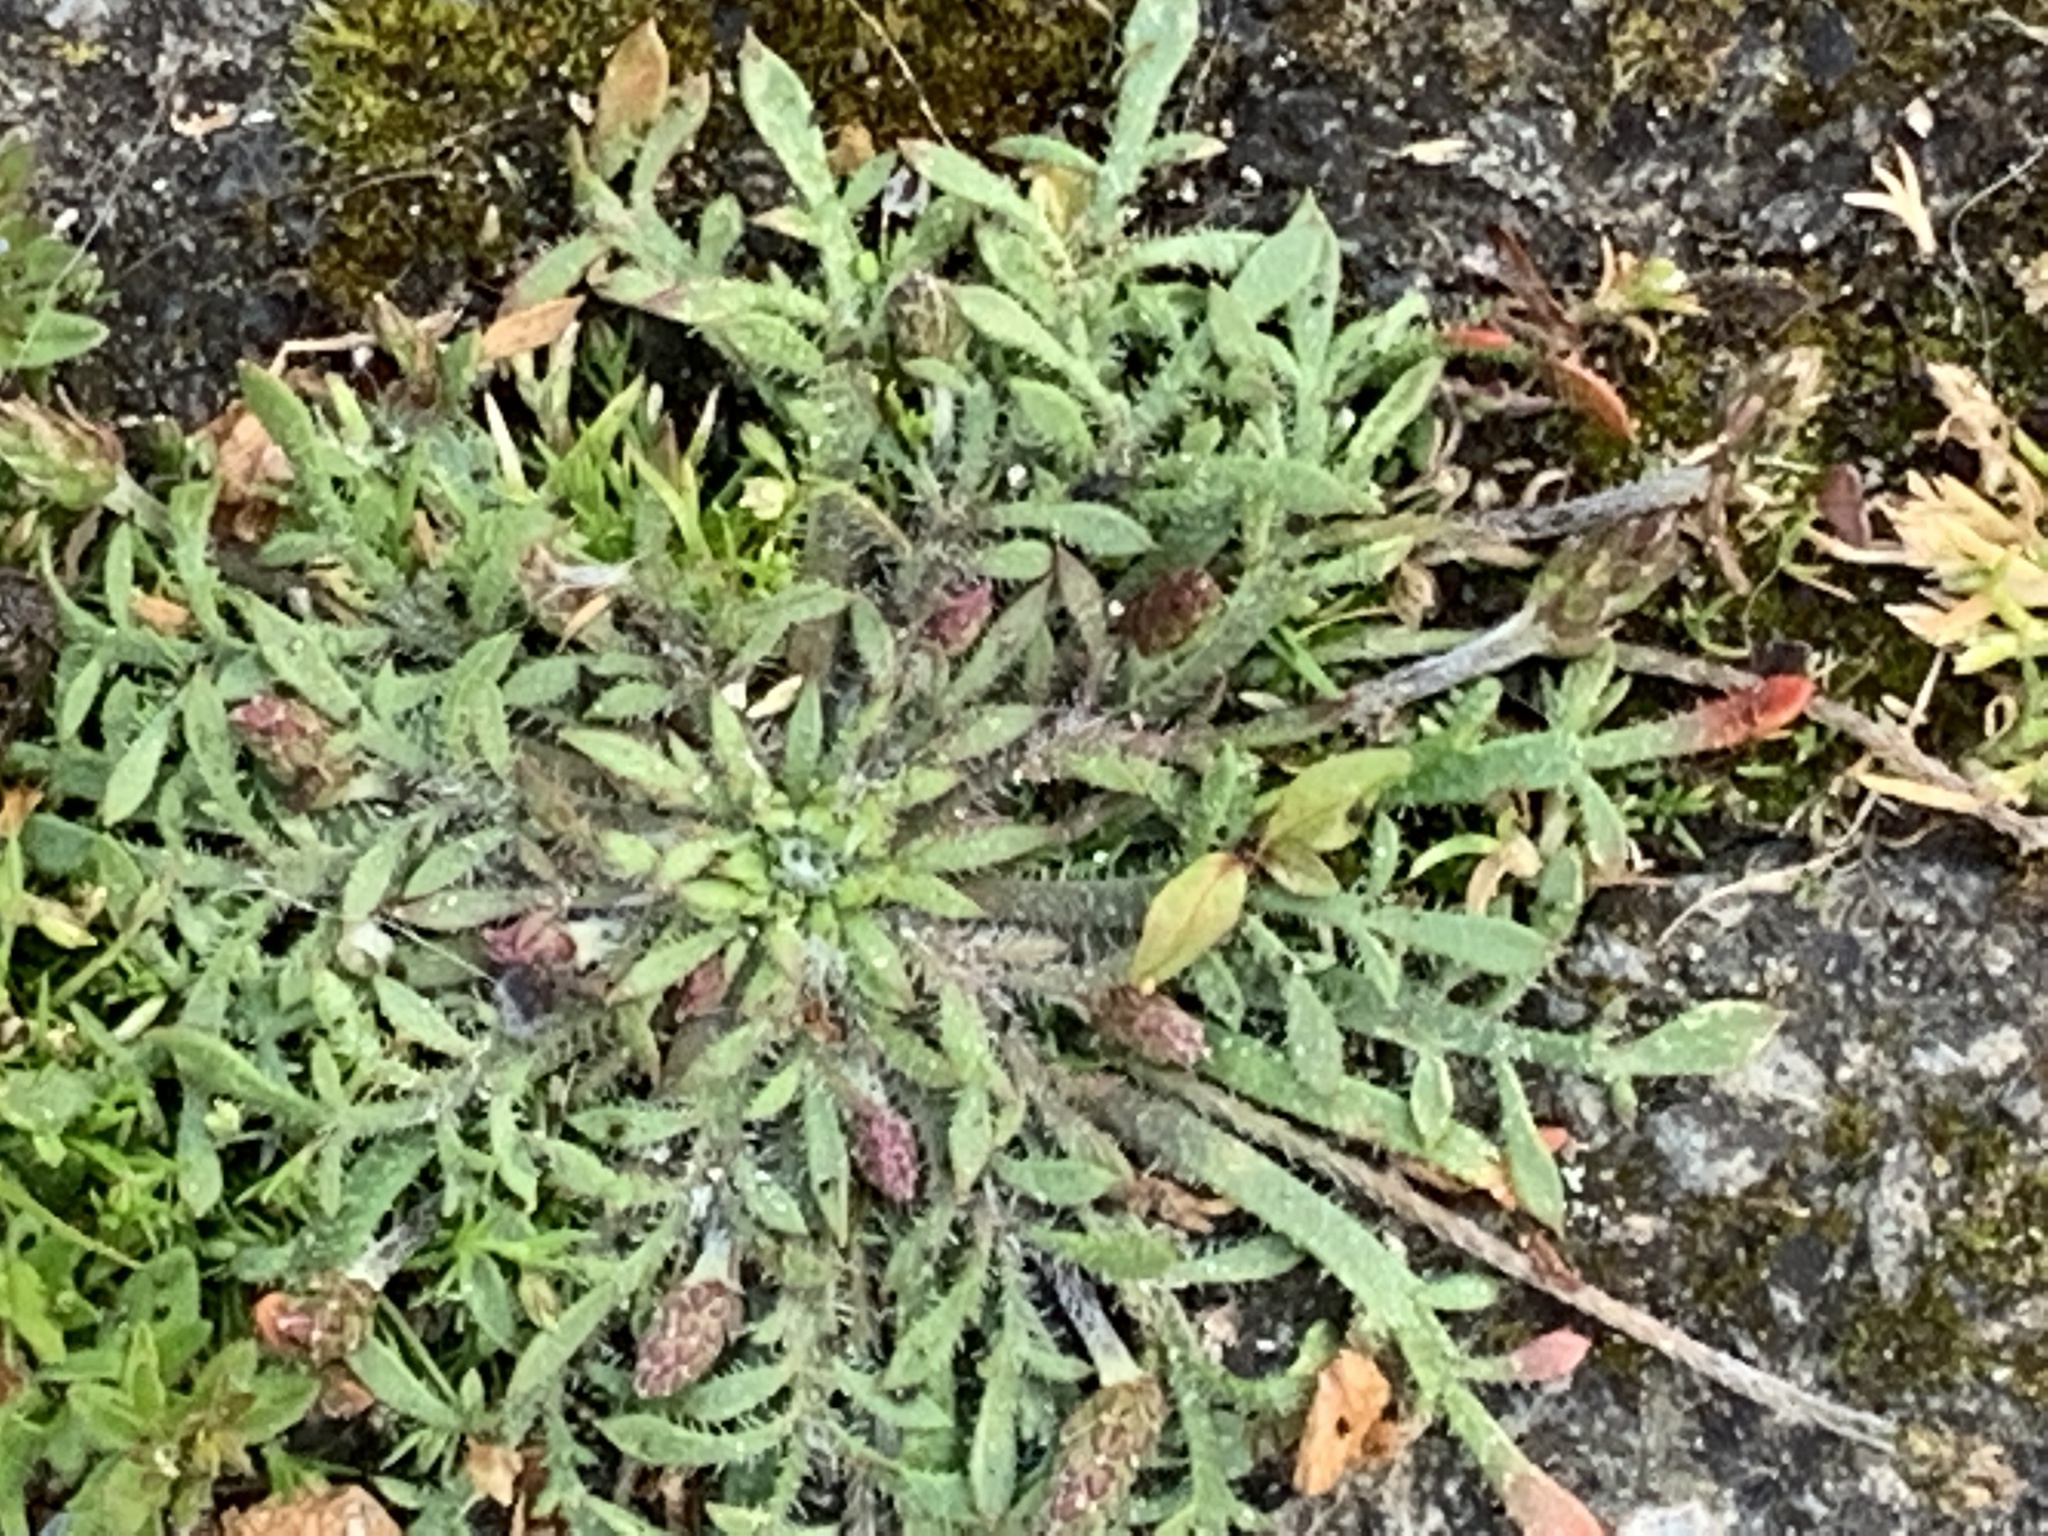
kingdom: Plantae
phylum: Tracheophyta
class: Magnoliopsida
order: Lamiales
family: Plantaginaceae
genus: Plantago
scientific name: Plantago coronopus
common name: Buck's-horn plantain
